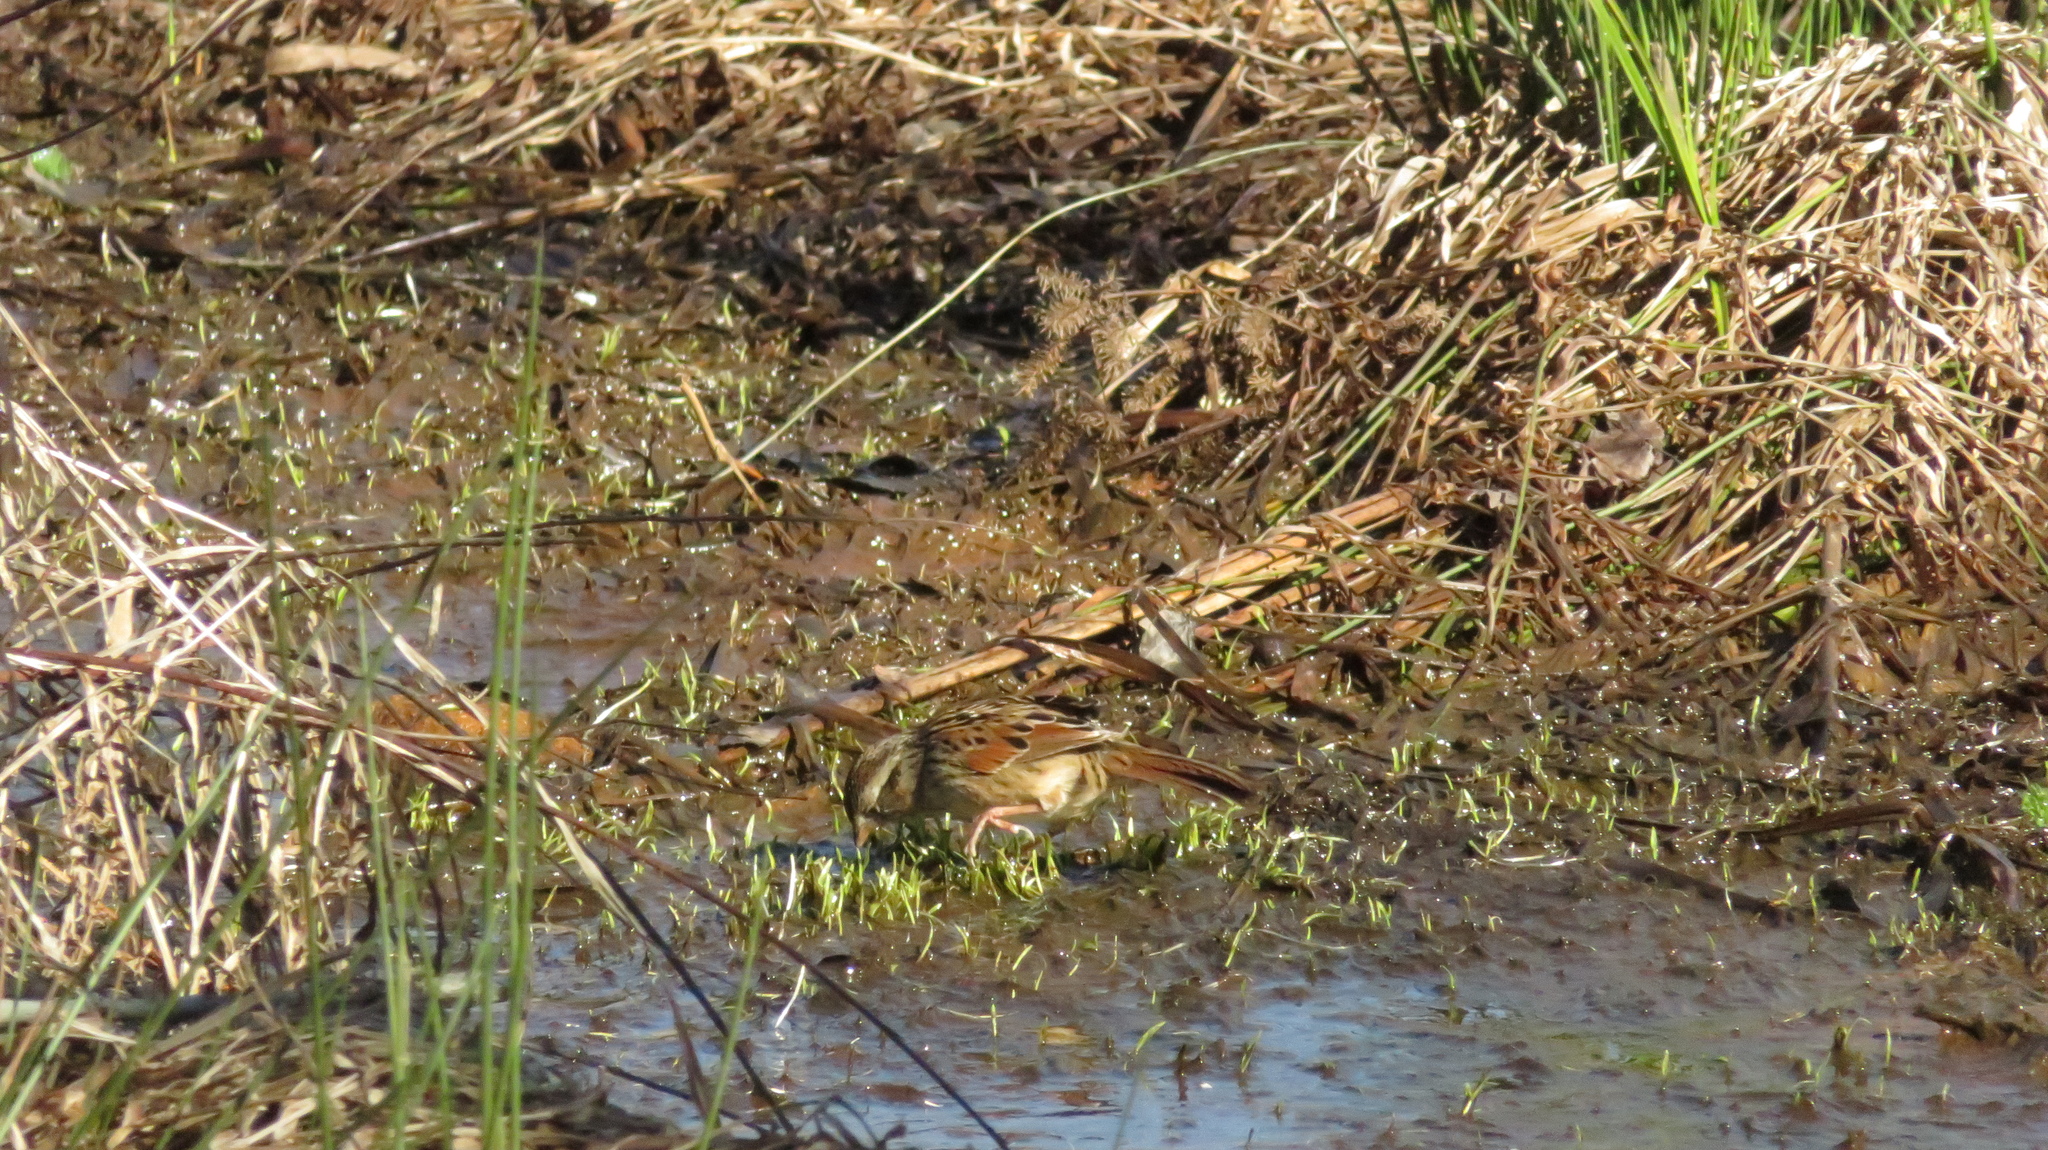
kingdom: Animalia
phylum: Chordata
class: Aves
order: Passeriformes
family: Passerellidae
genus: Melospiza
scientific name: Melospiza georgiana
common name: Swamp sparrow
